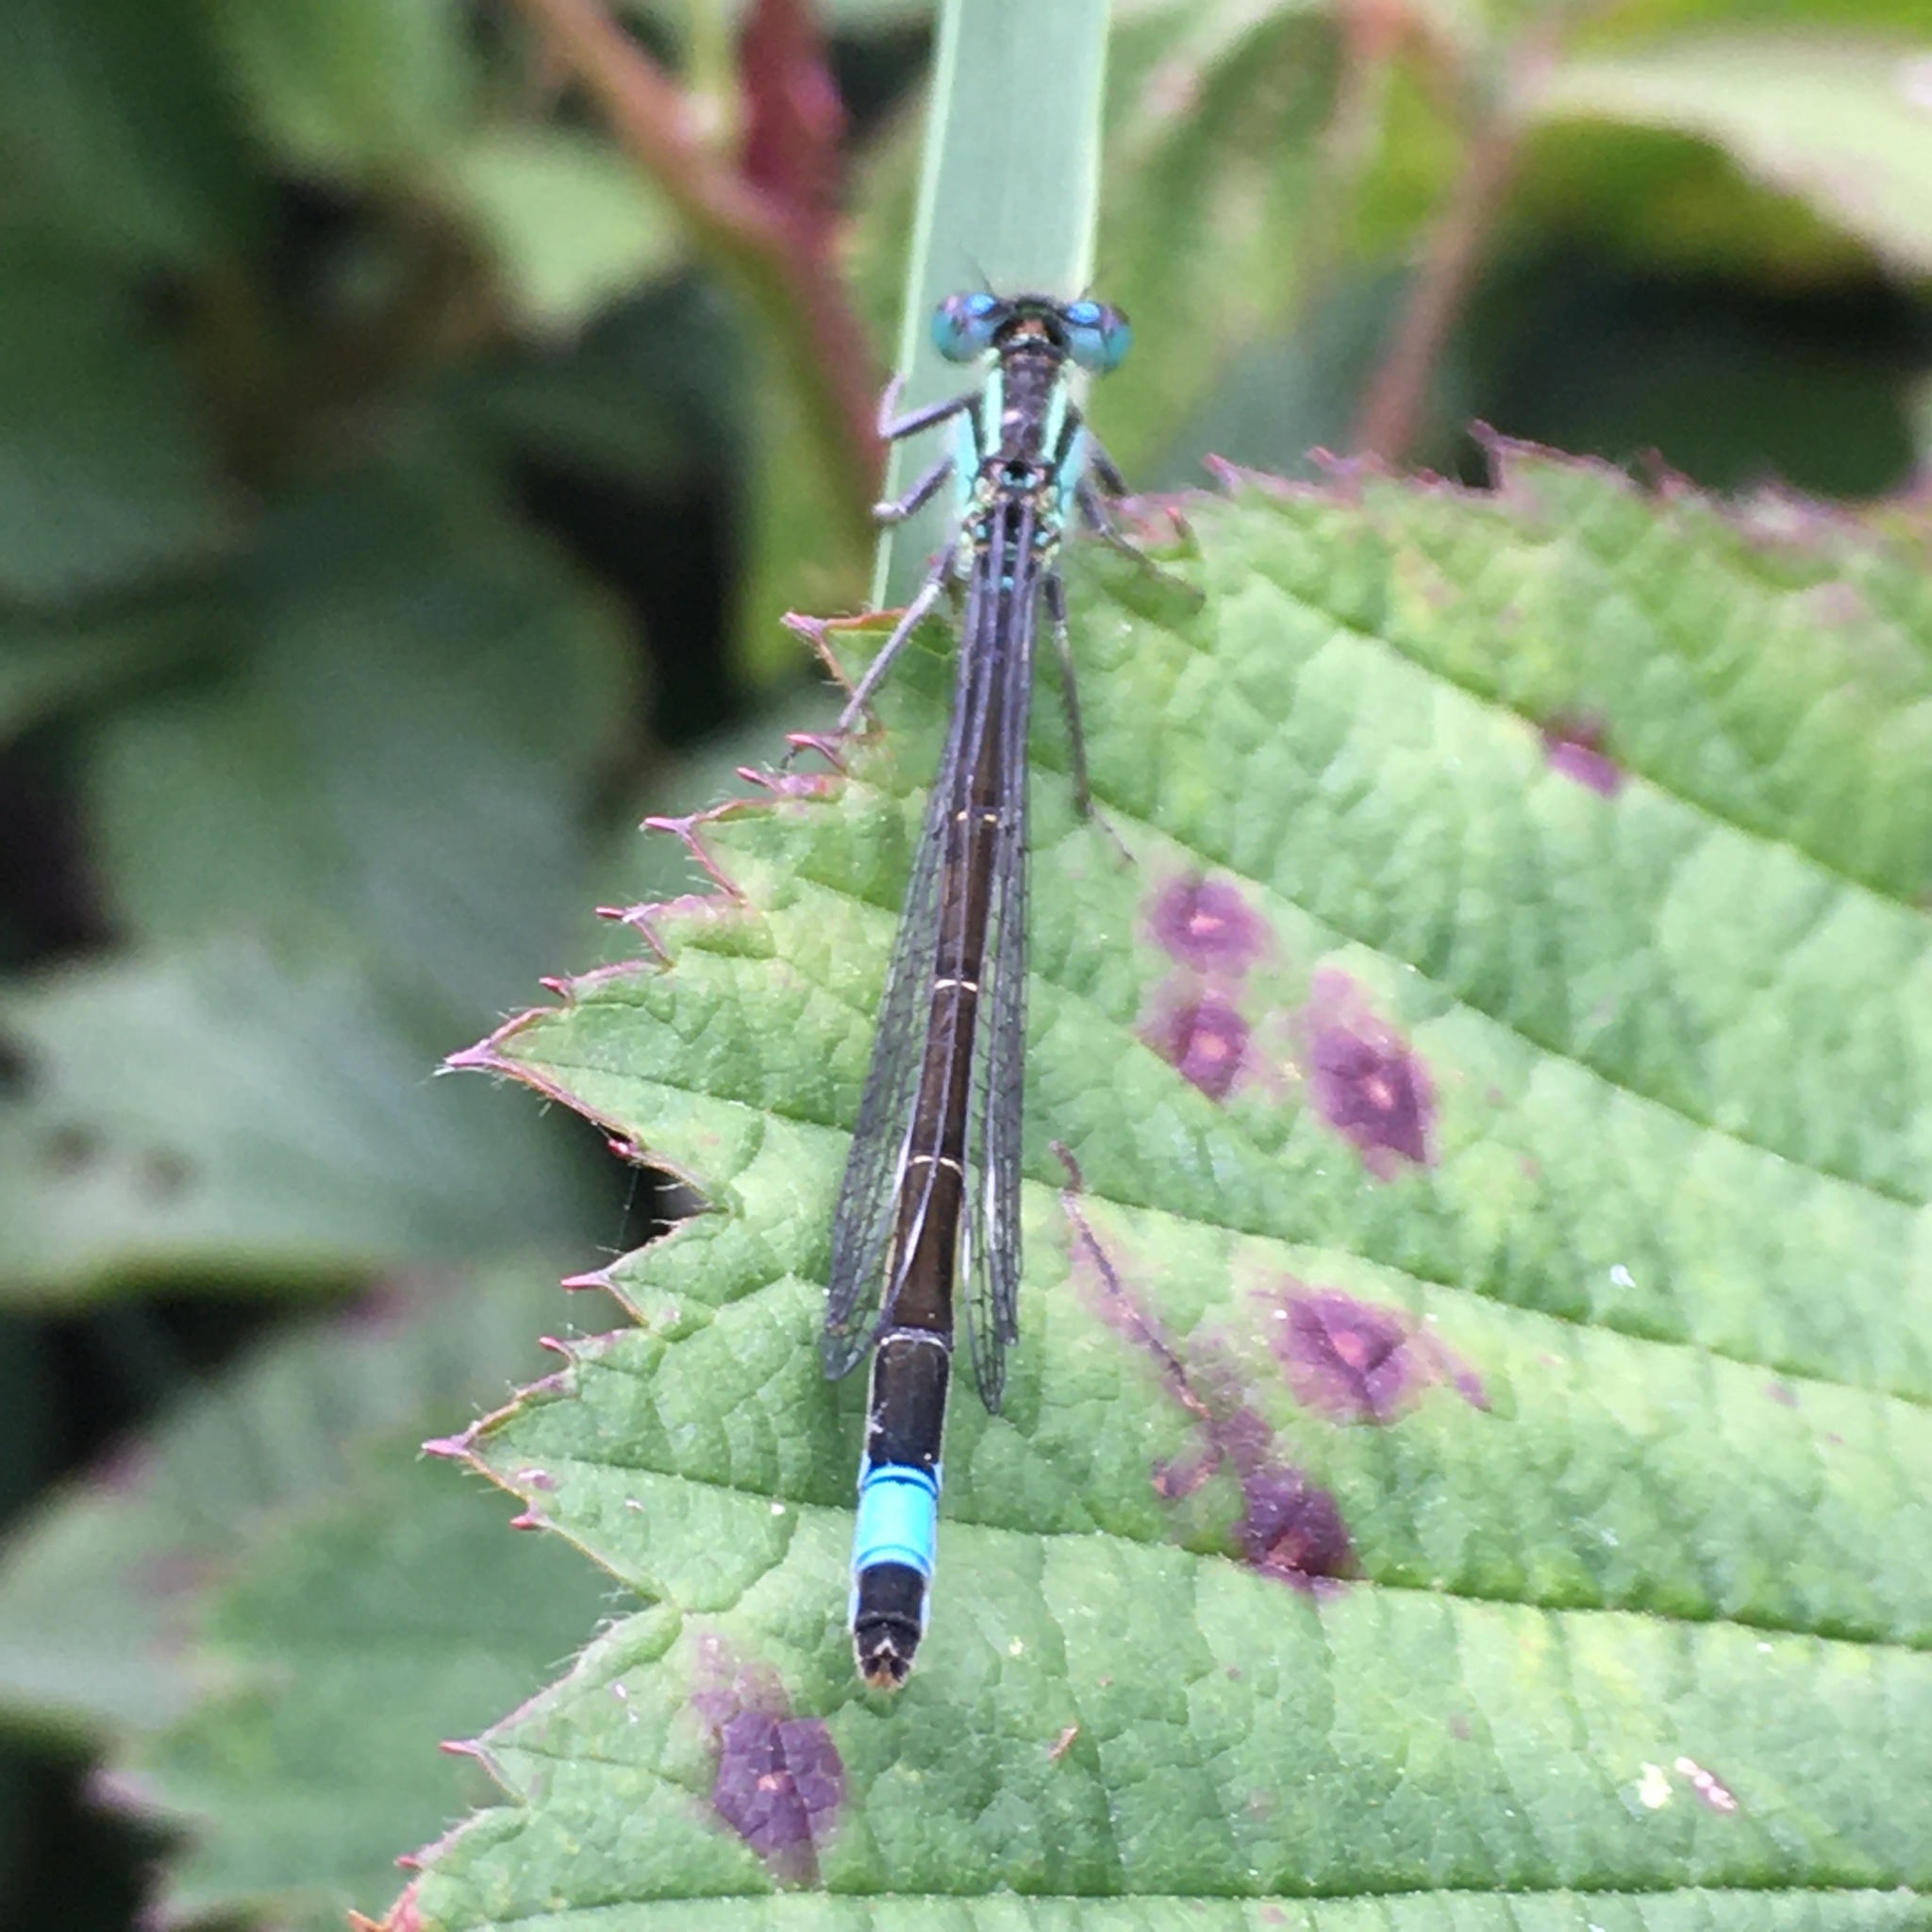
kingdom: Animalia
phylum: Arthropoda
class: Insecta
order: Odonata
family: Coenagrionidae
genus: Ischnura
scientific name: Ischnura elegans
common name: Blue-tailed damselfly
